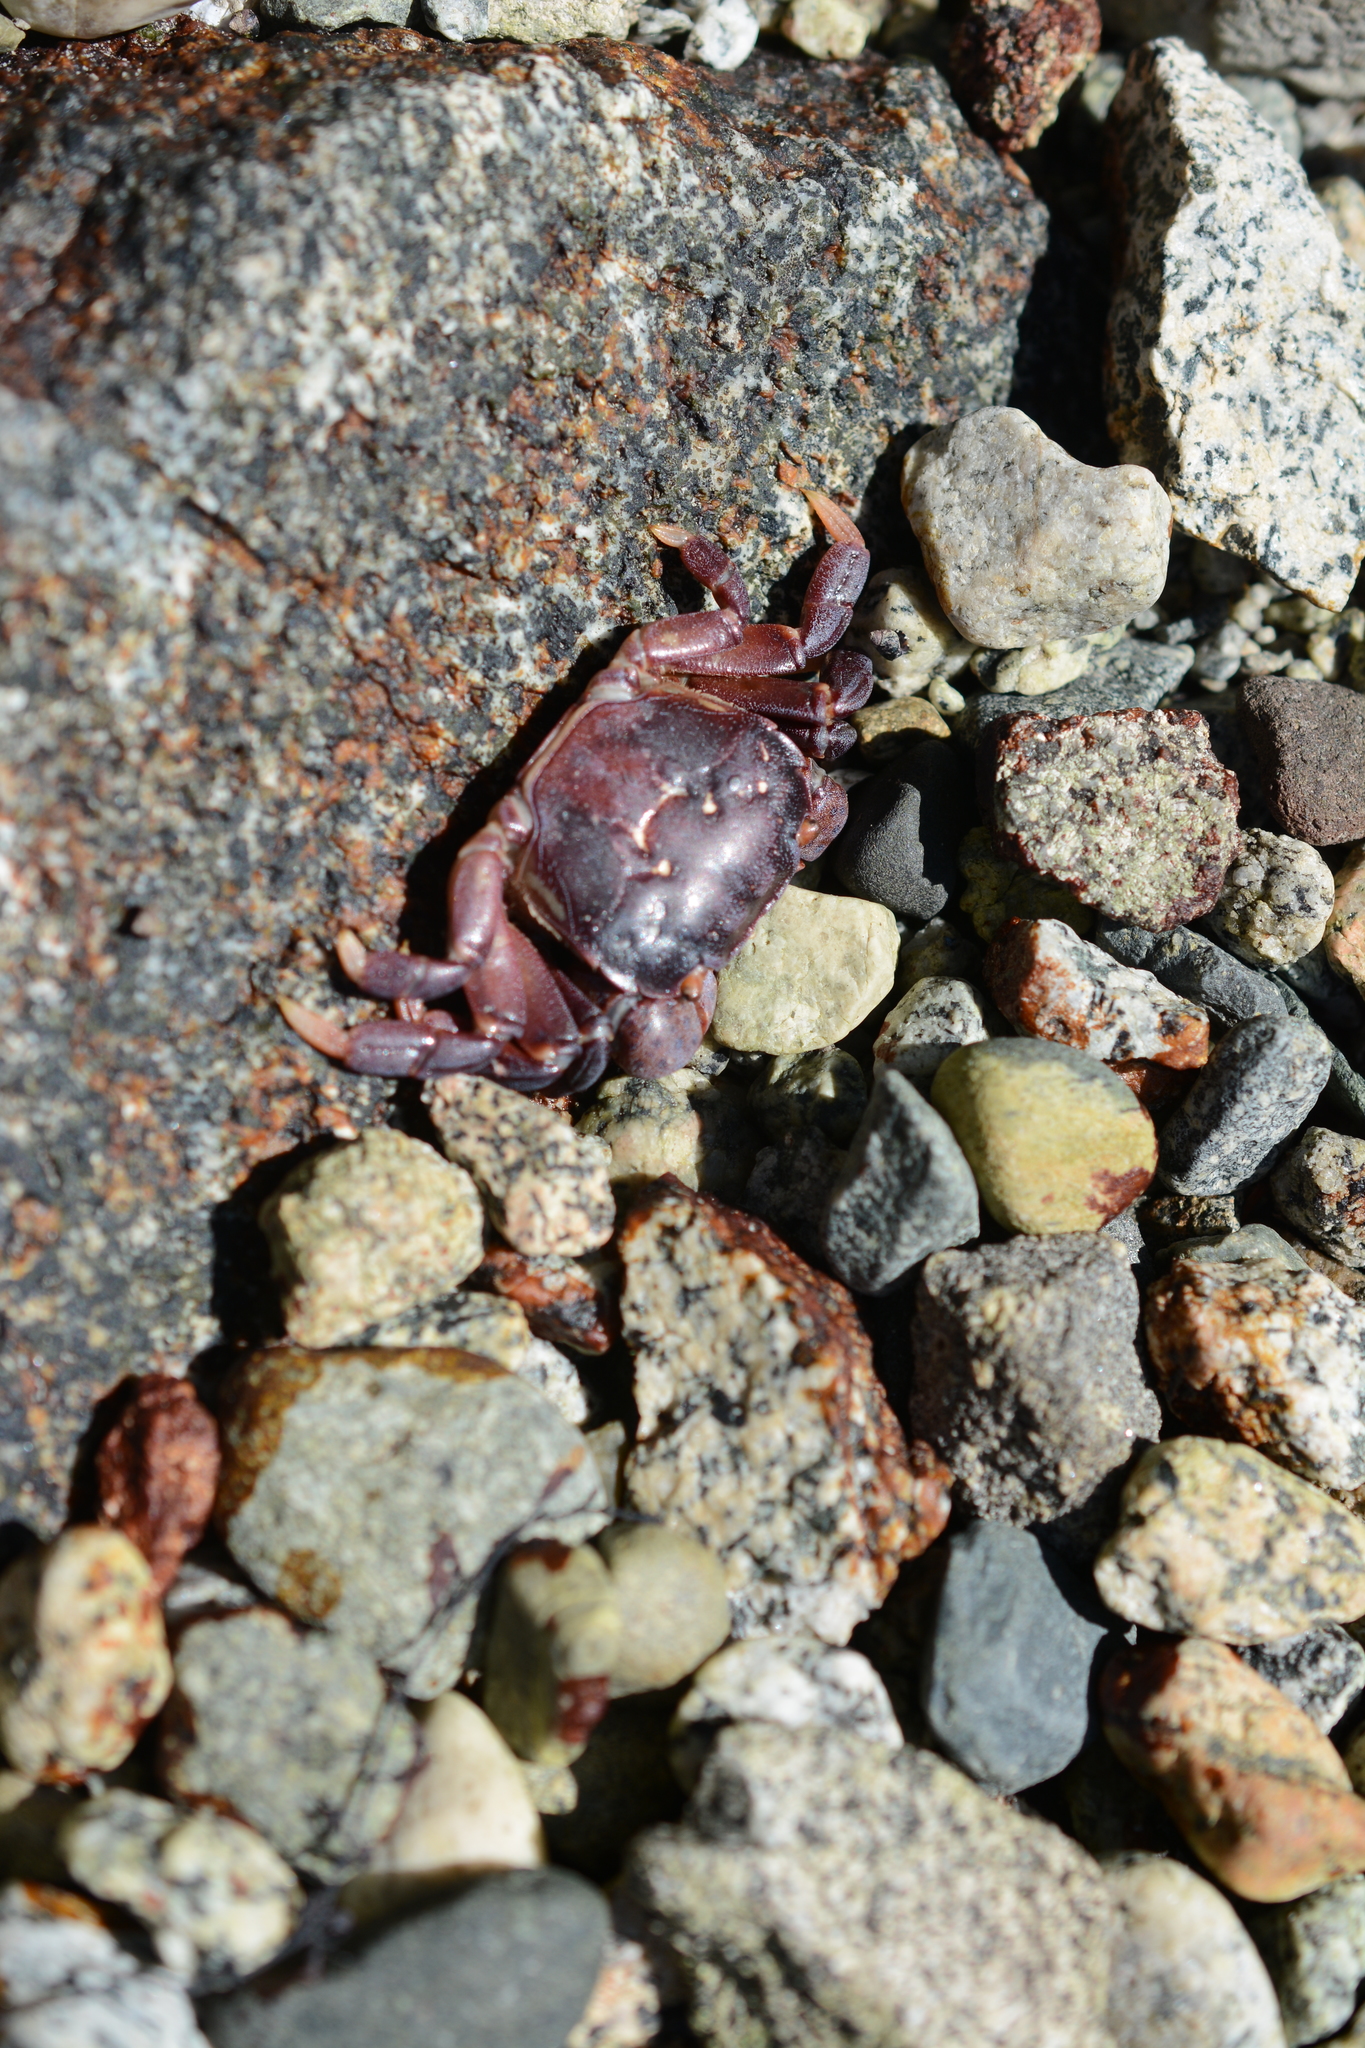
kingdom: Animalia
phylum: Arthropoda
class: Malacostraca
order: Decapoda
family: Varunidae
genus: Hemigrapsus
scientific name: Hemigrapsus nudus
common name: Purple shore crab
